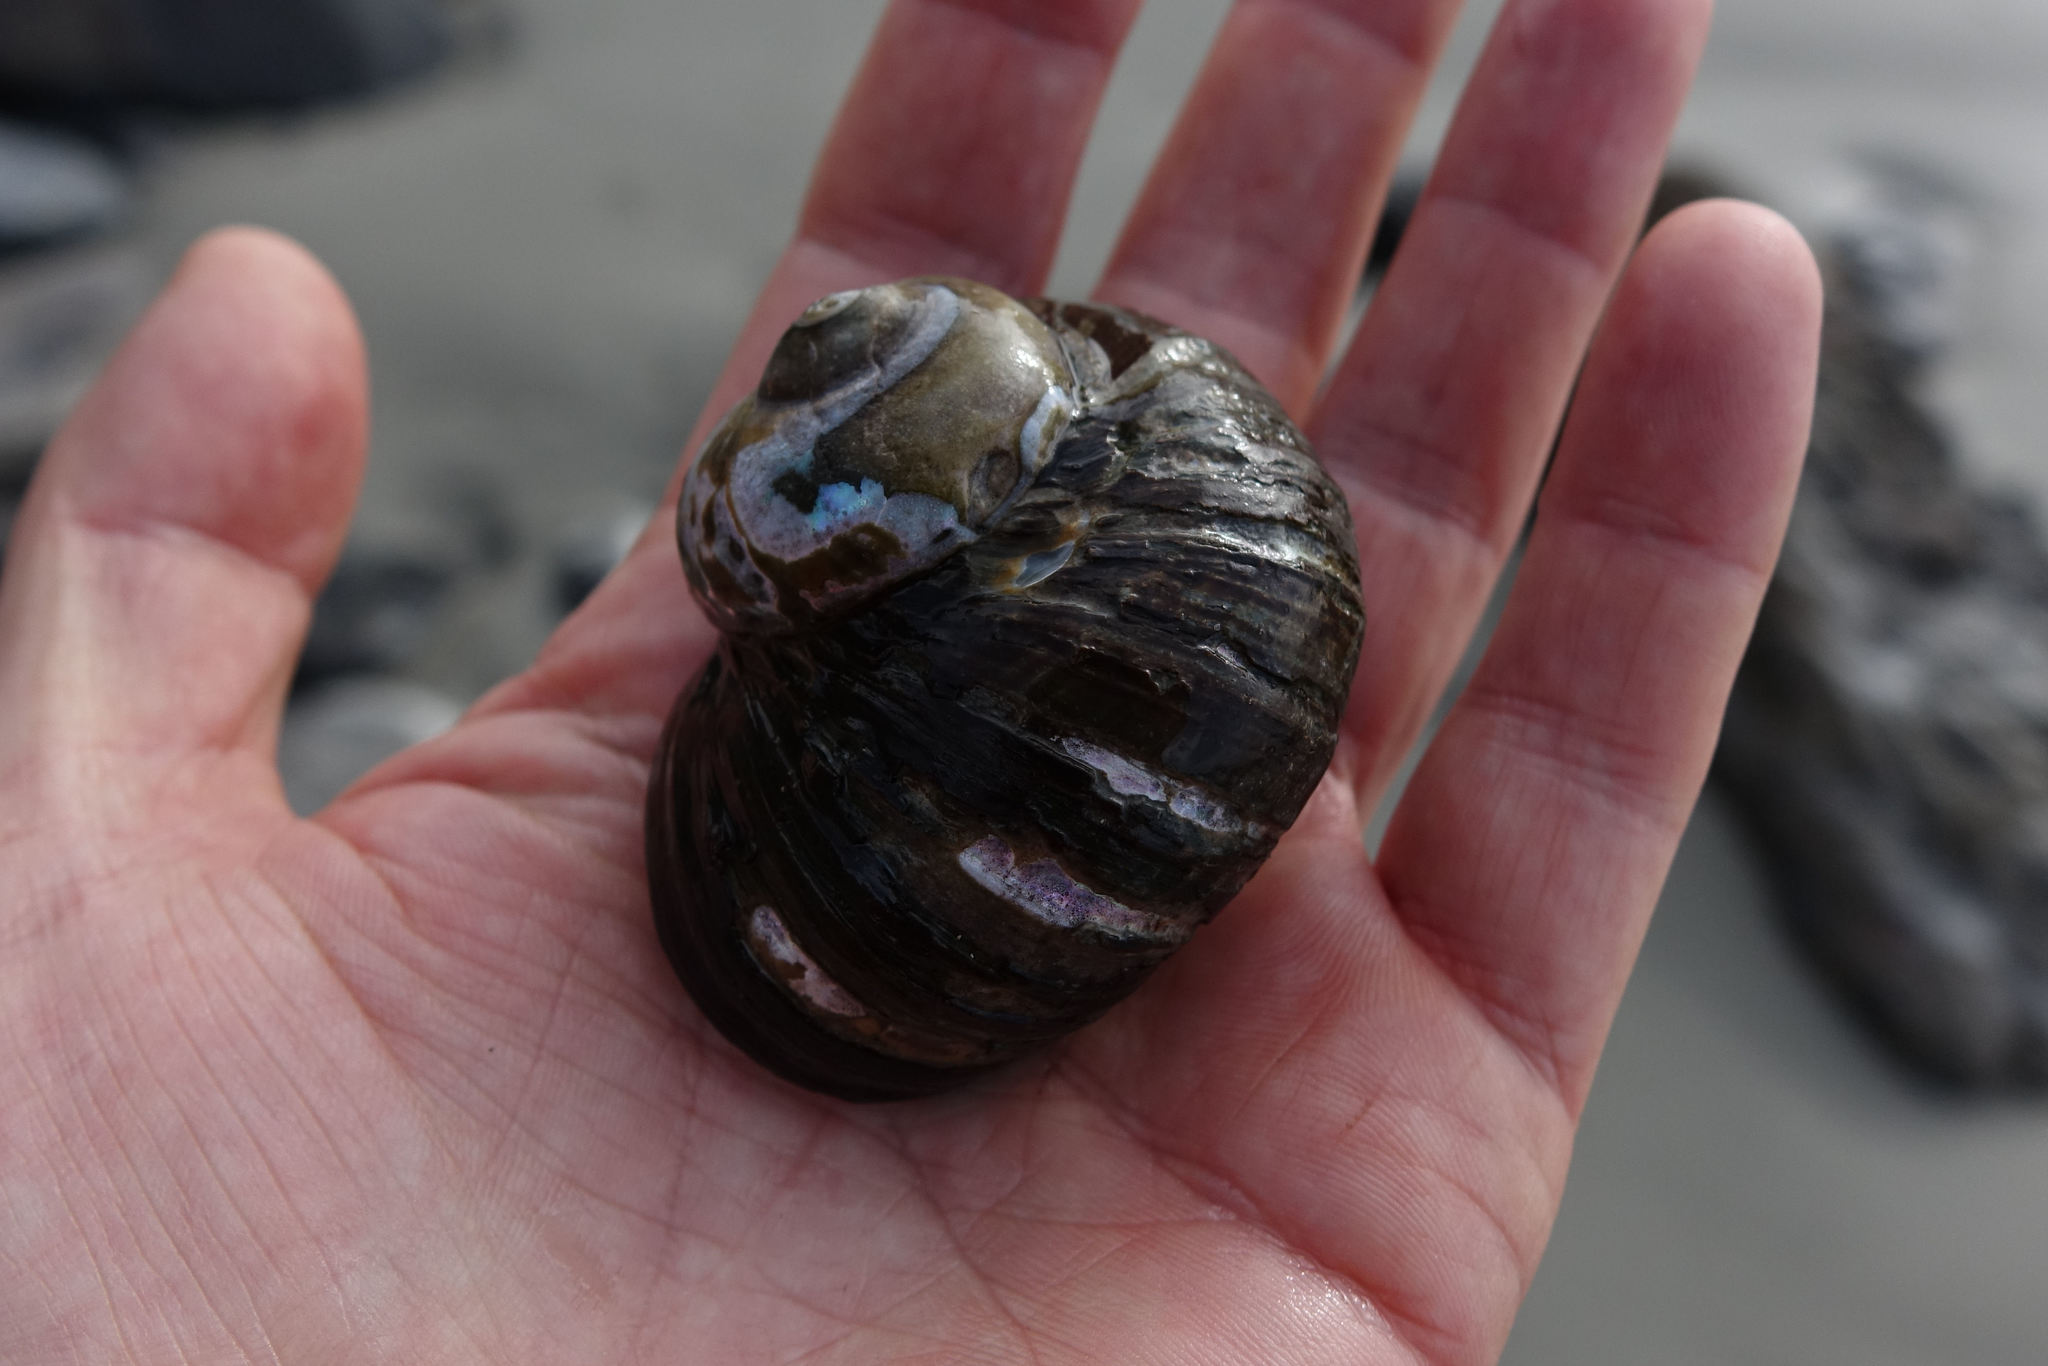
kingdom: Animalia
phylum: Mollusca
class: Gastropoda
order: Trochida
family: Turbinidae
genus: Lunella
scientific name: Lunella smaragda
